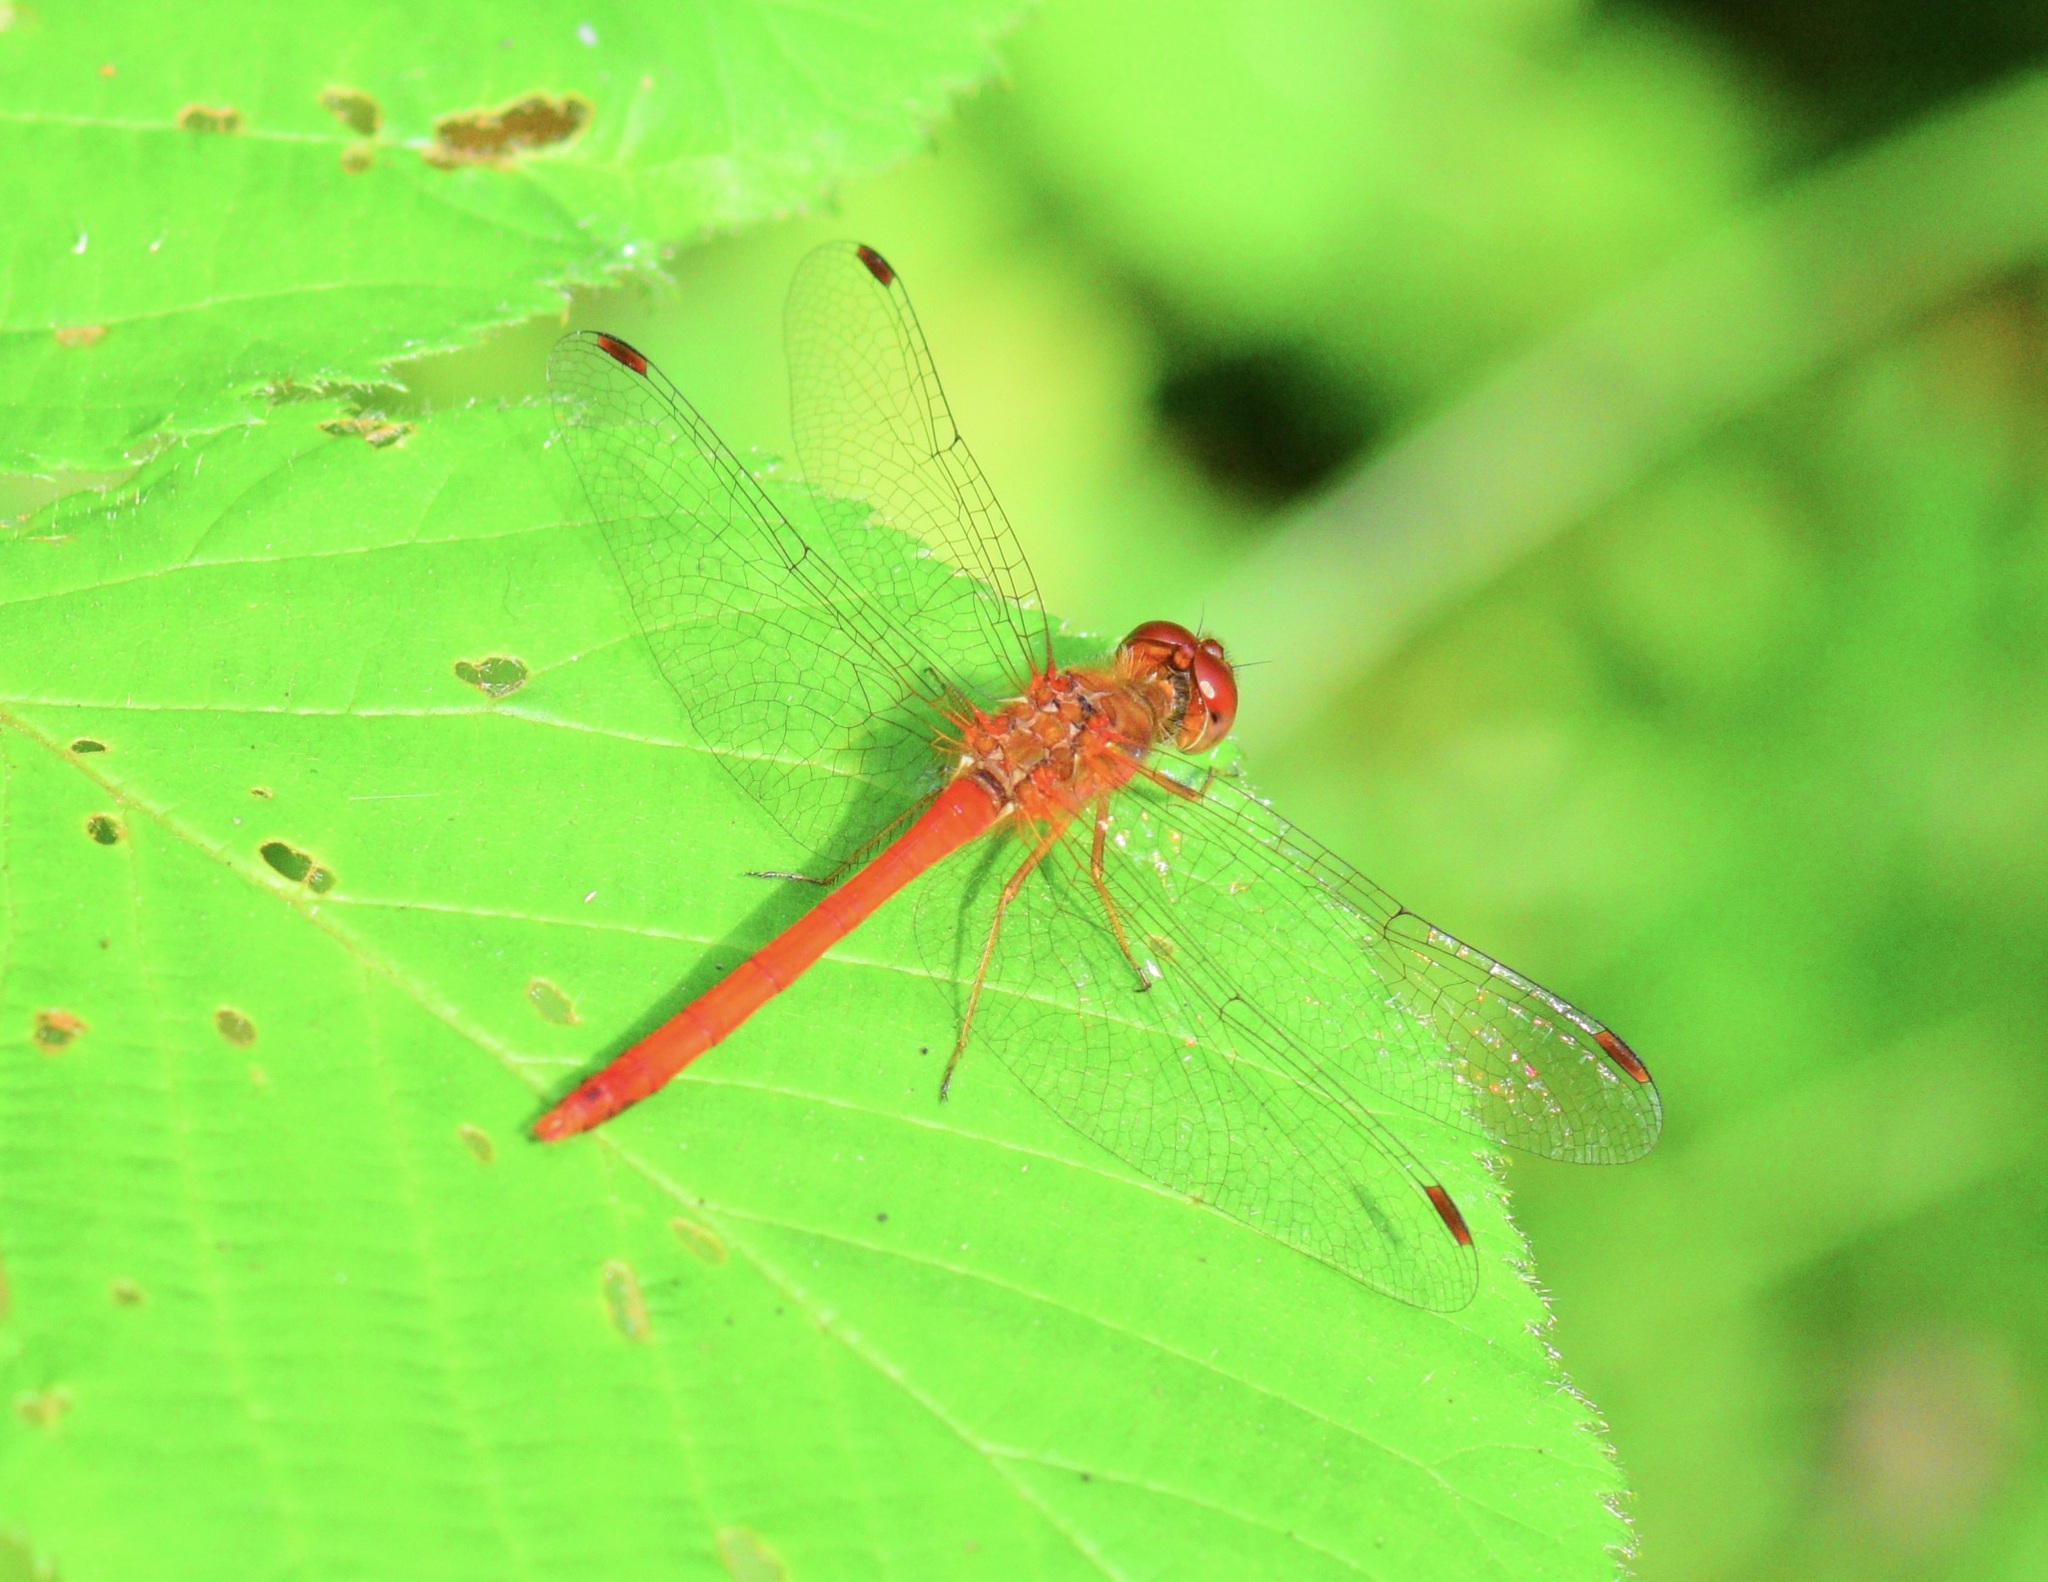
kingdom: Animalia
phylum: Arthropoda
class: Insecta
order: Odonata
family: Libellulidae
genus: Sympetrum
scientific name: Sympetrum vicinum
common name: Autumn meadowhawk
